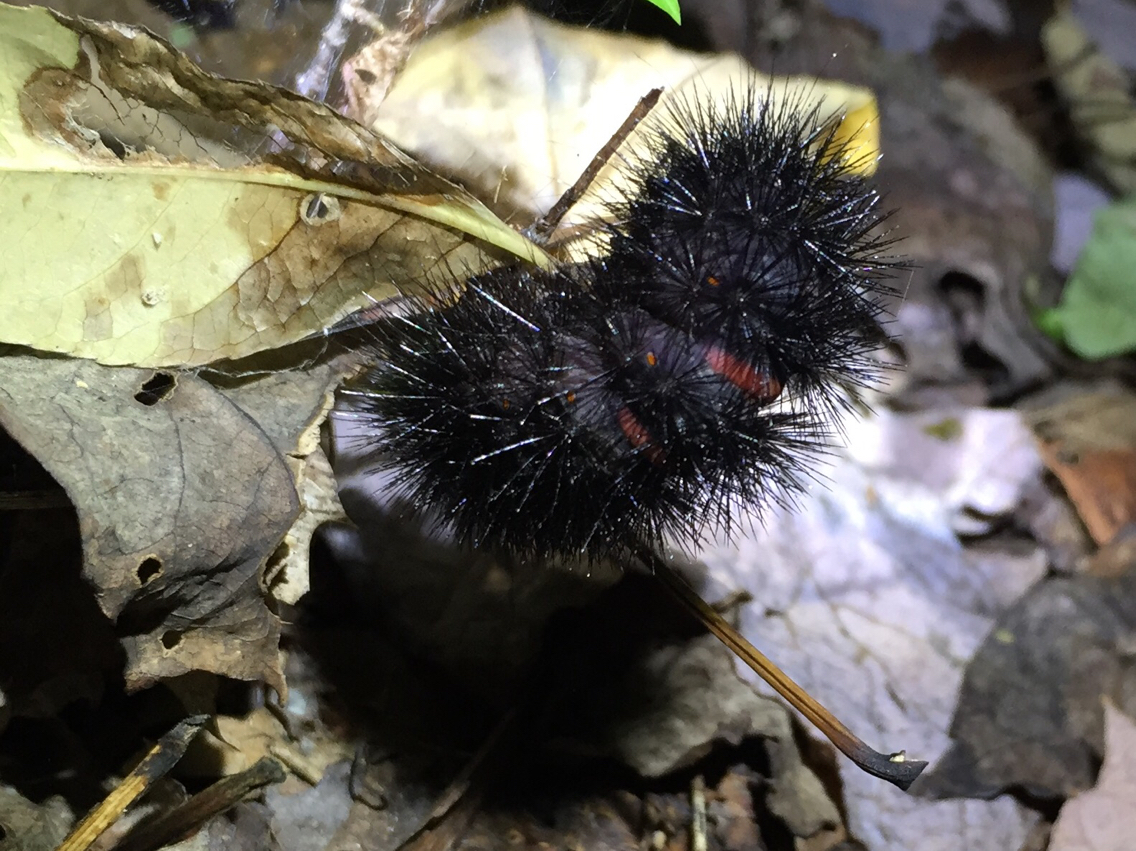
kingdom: Animalia
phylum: Arthropoda
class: Insecta
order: Lepidoptera
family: Erebidae
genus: Hypercompe
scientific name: Hypercompe scribonia
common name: Giant leopard moth
